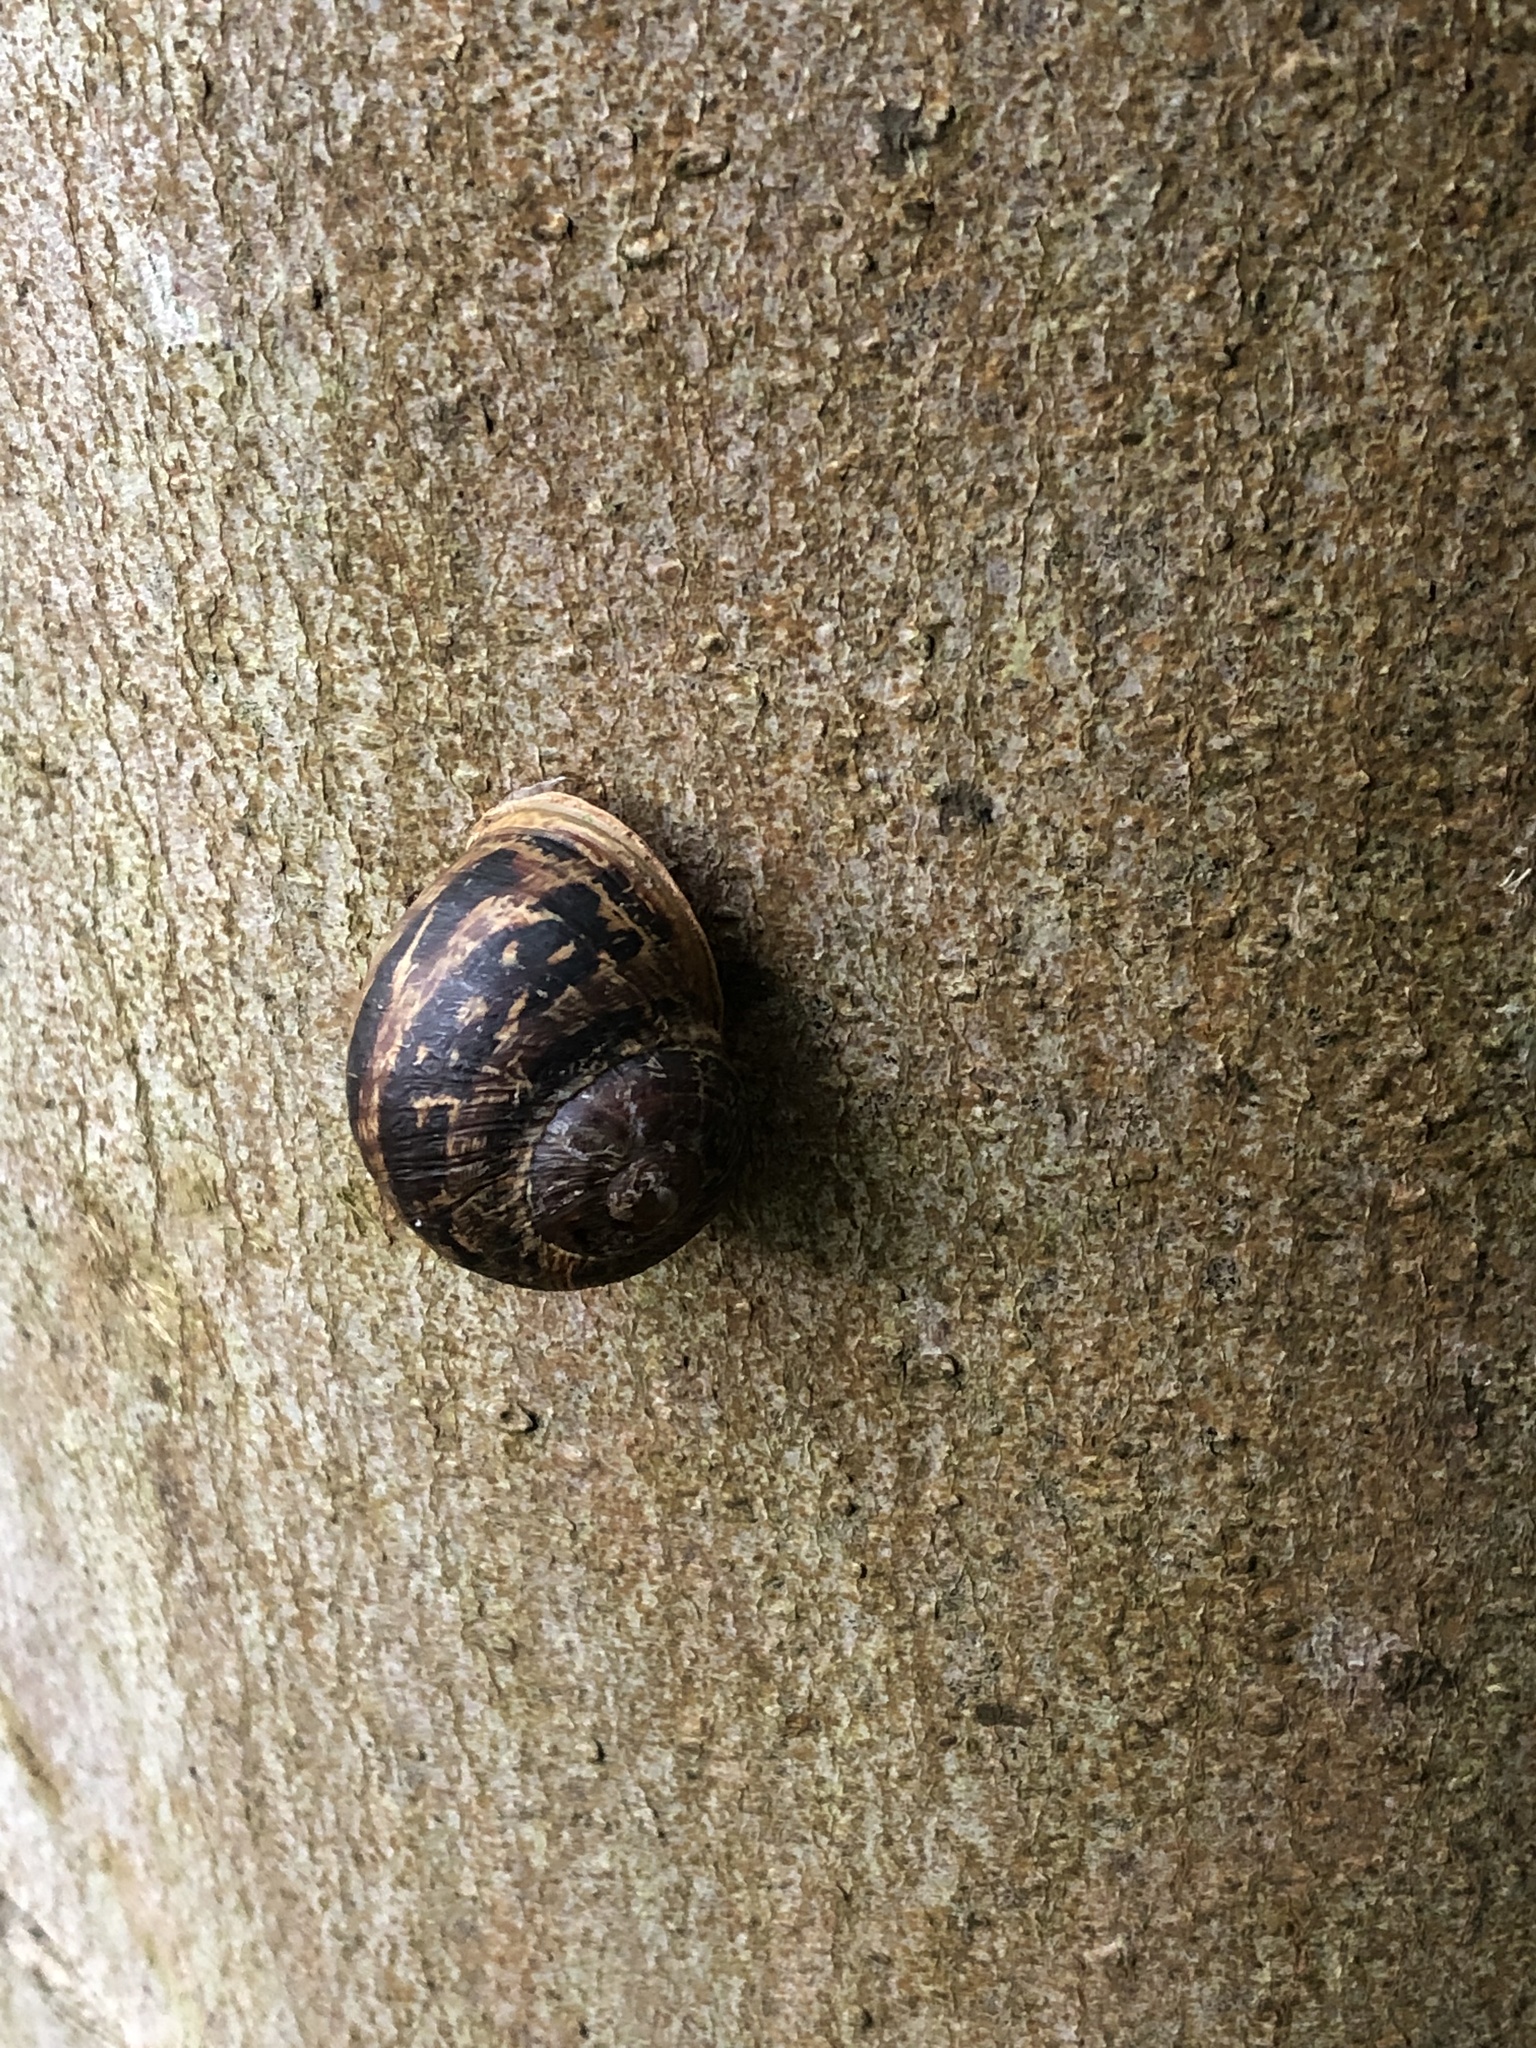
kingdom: Animalia
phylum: Mollusca
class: Gastropoda
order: Stylommatophora
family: Helicidae
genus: Cornu
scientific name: Cornu aspersum
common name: Brown garden snail
